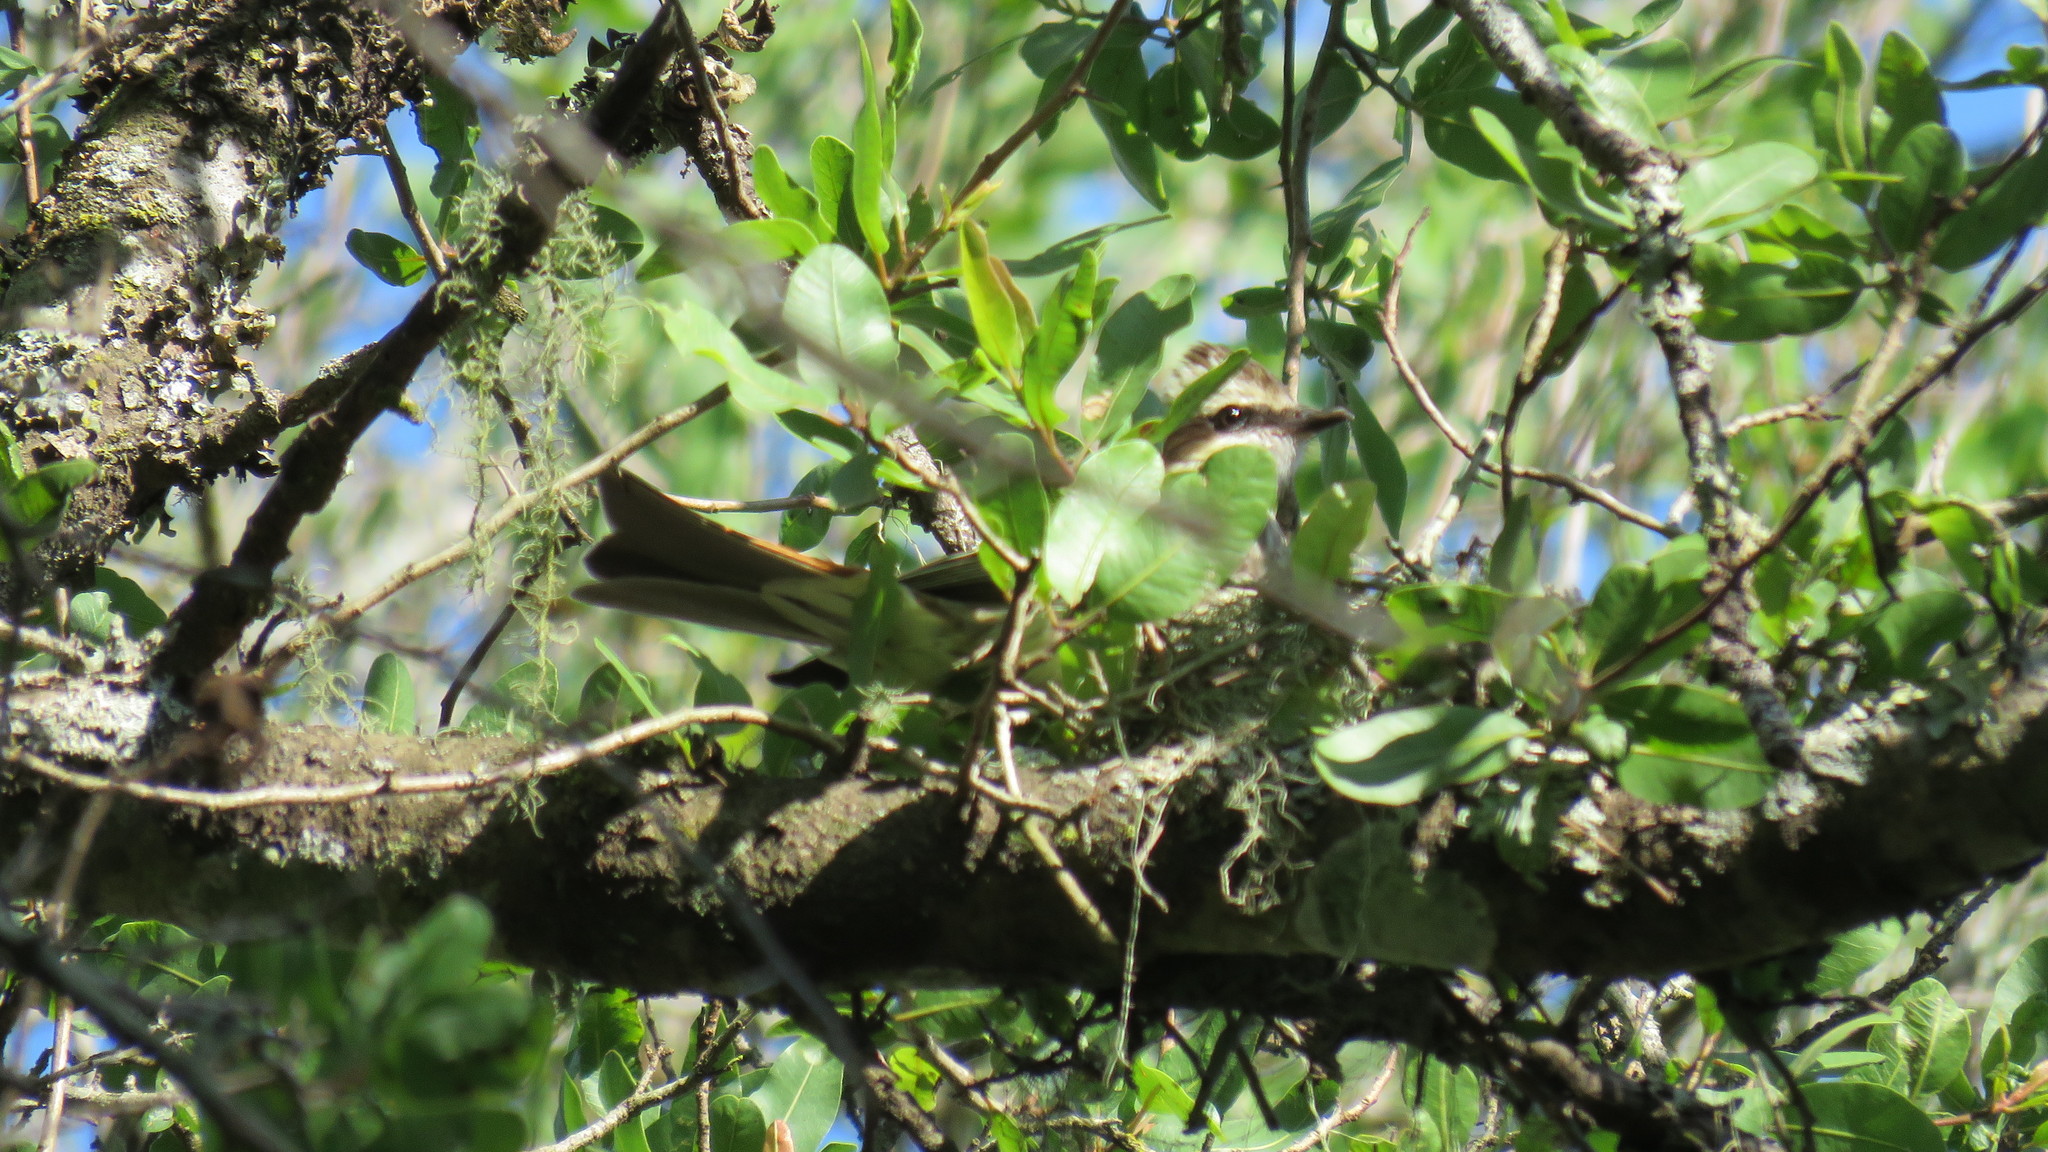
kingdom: Animalia
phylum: Chordata
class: Aves
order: Passeriformes
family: Tyrannidae
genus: Empidonomus
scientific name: Empidonomus varius
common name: Variegated flycatcher
